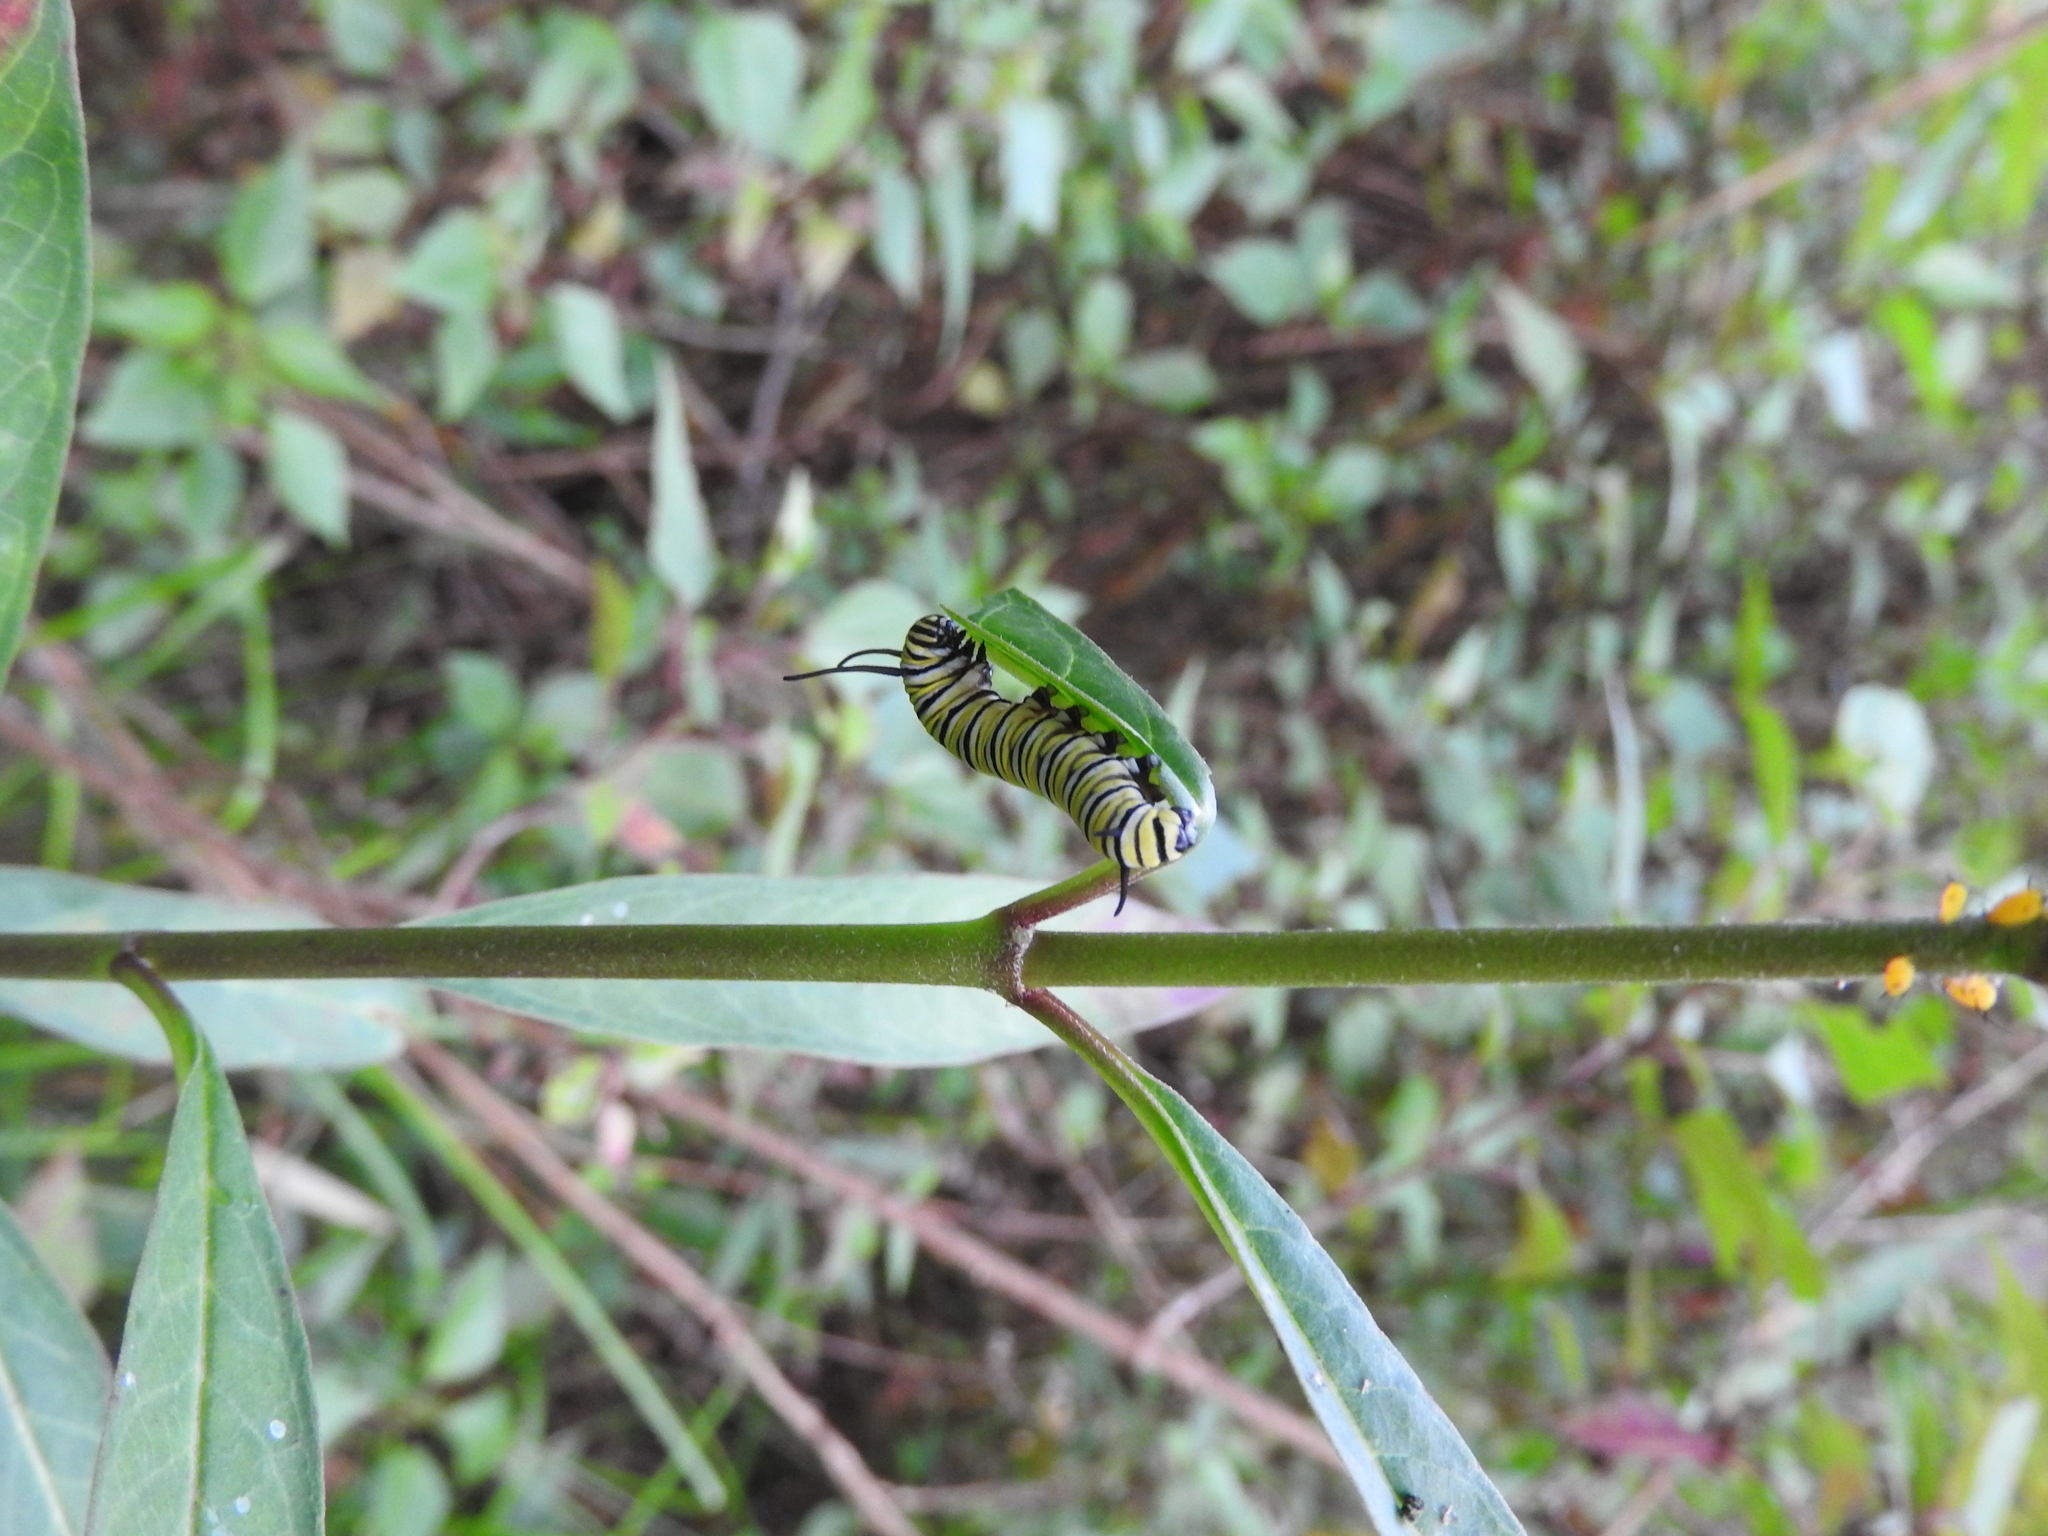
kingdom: Animalia
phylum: Arthropoda
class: Insecta
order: Lepidoptera
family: Nymphalidae
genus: Danaus
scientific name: Danaus plexippus
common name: Monarch
